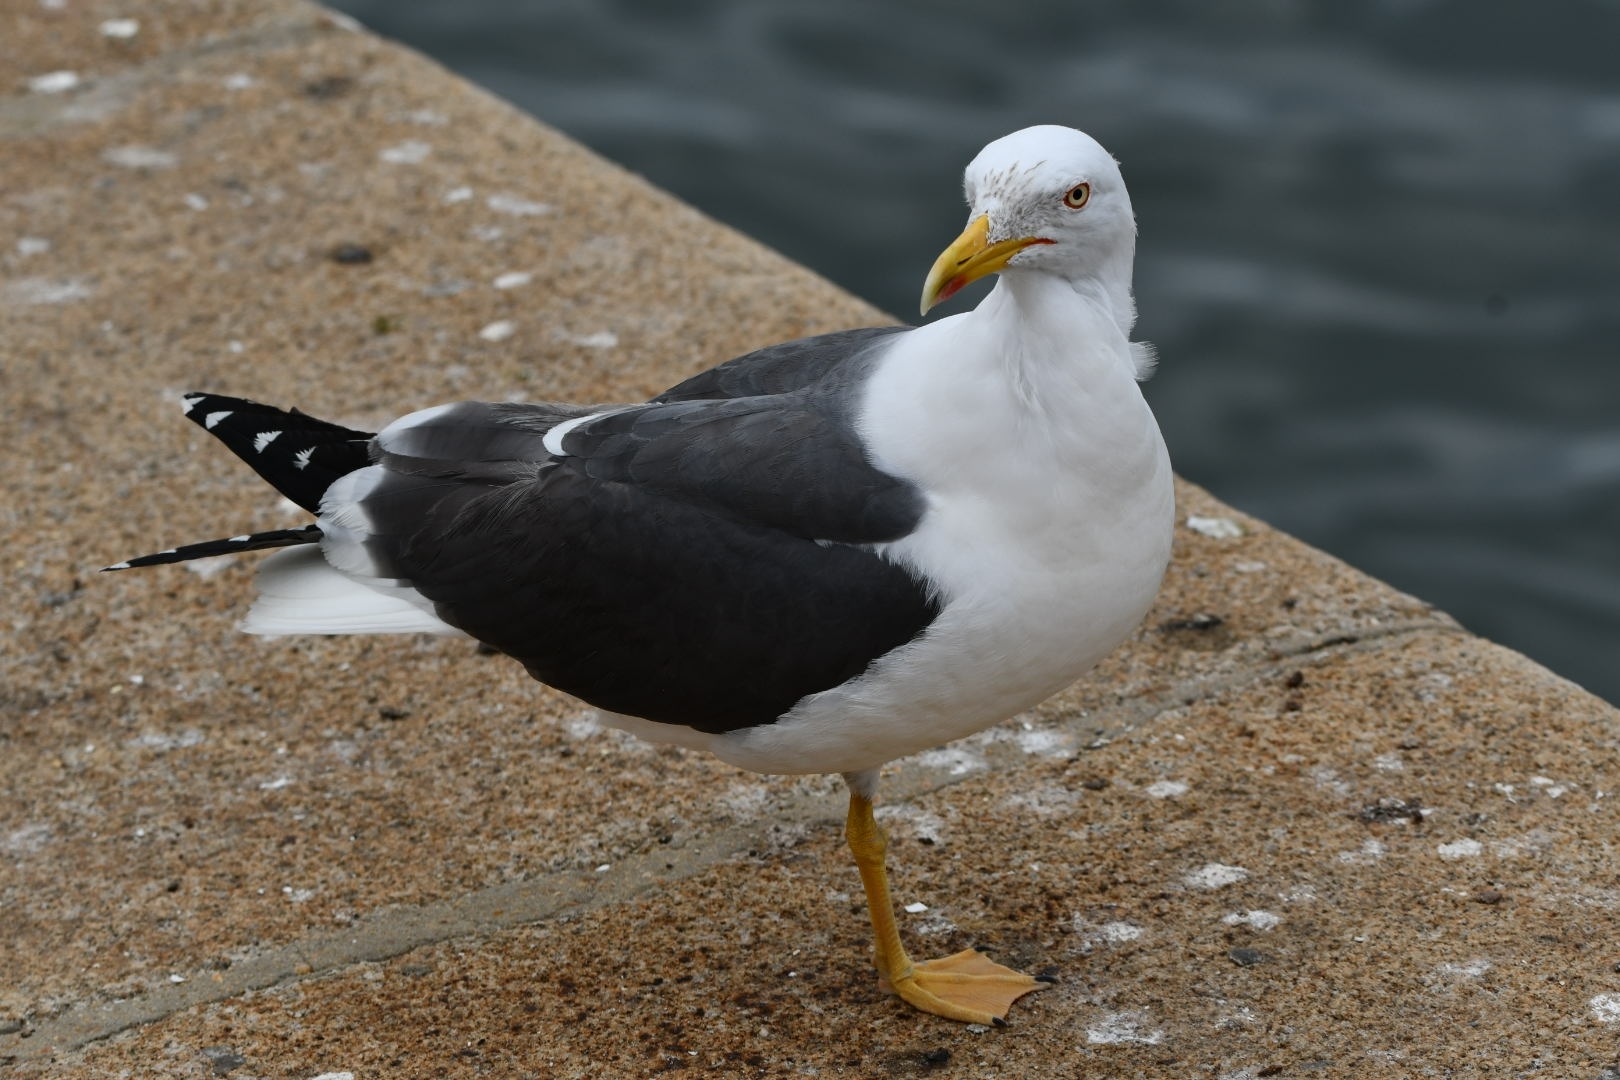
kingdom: Animalia
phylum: Chordata
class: Aves
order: Charadriiformes
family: Laridae
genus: Larus
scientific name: Larus fuscus
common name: Lesser black-backed gull
